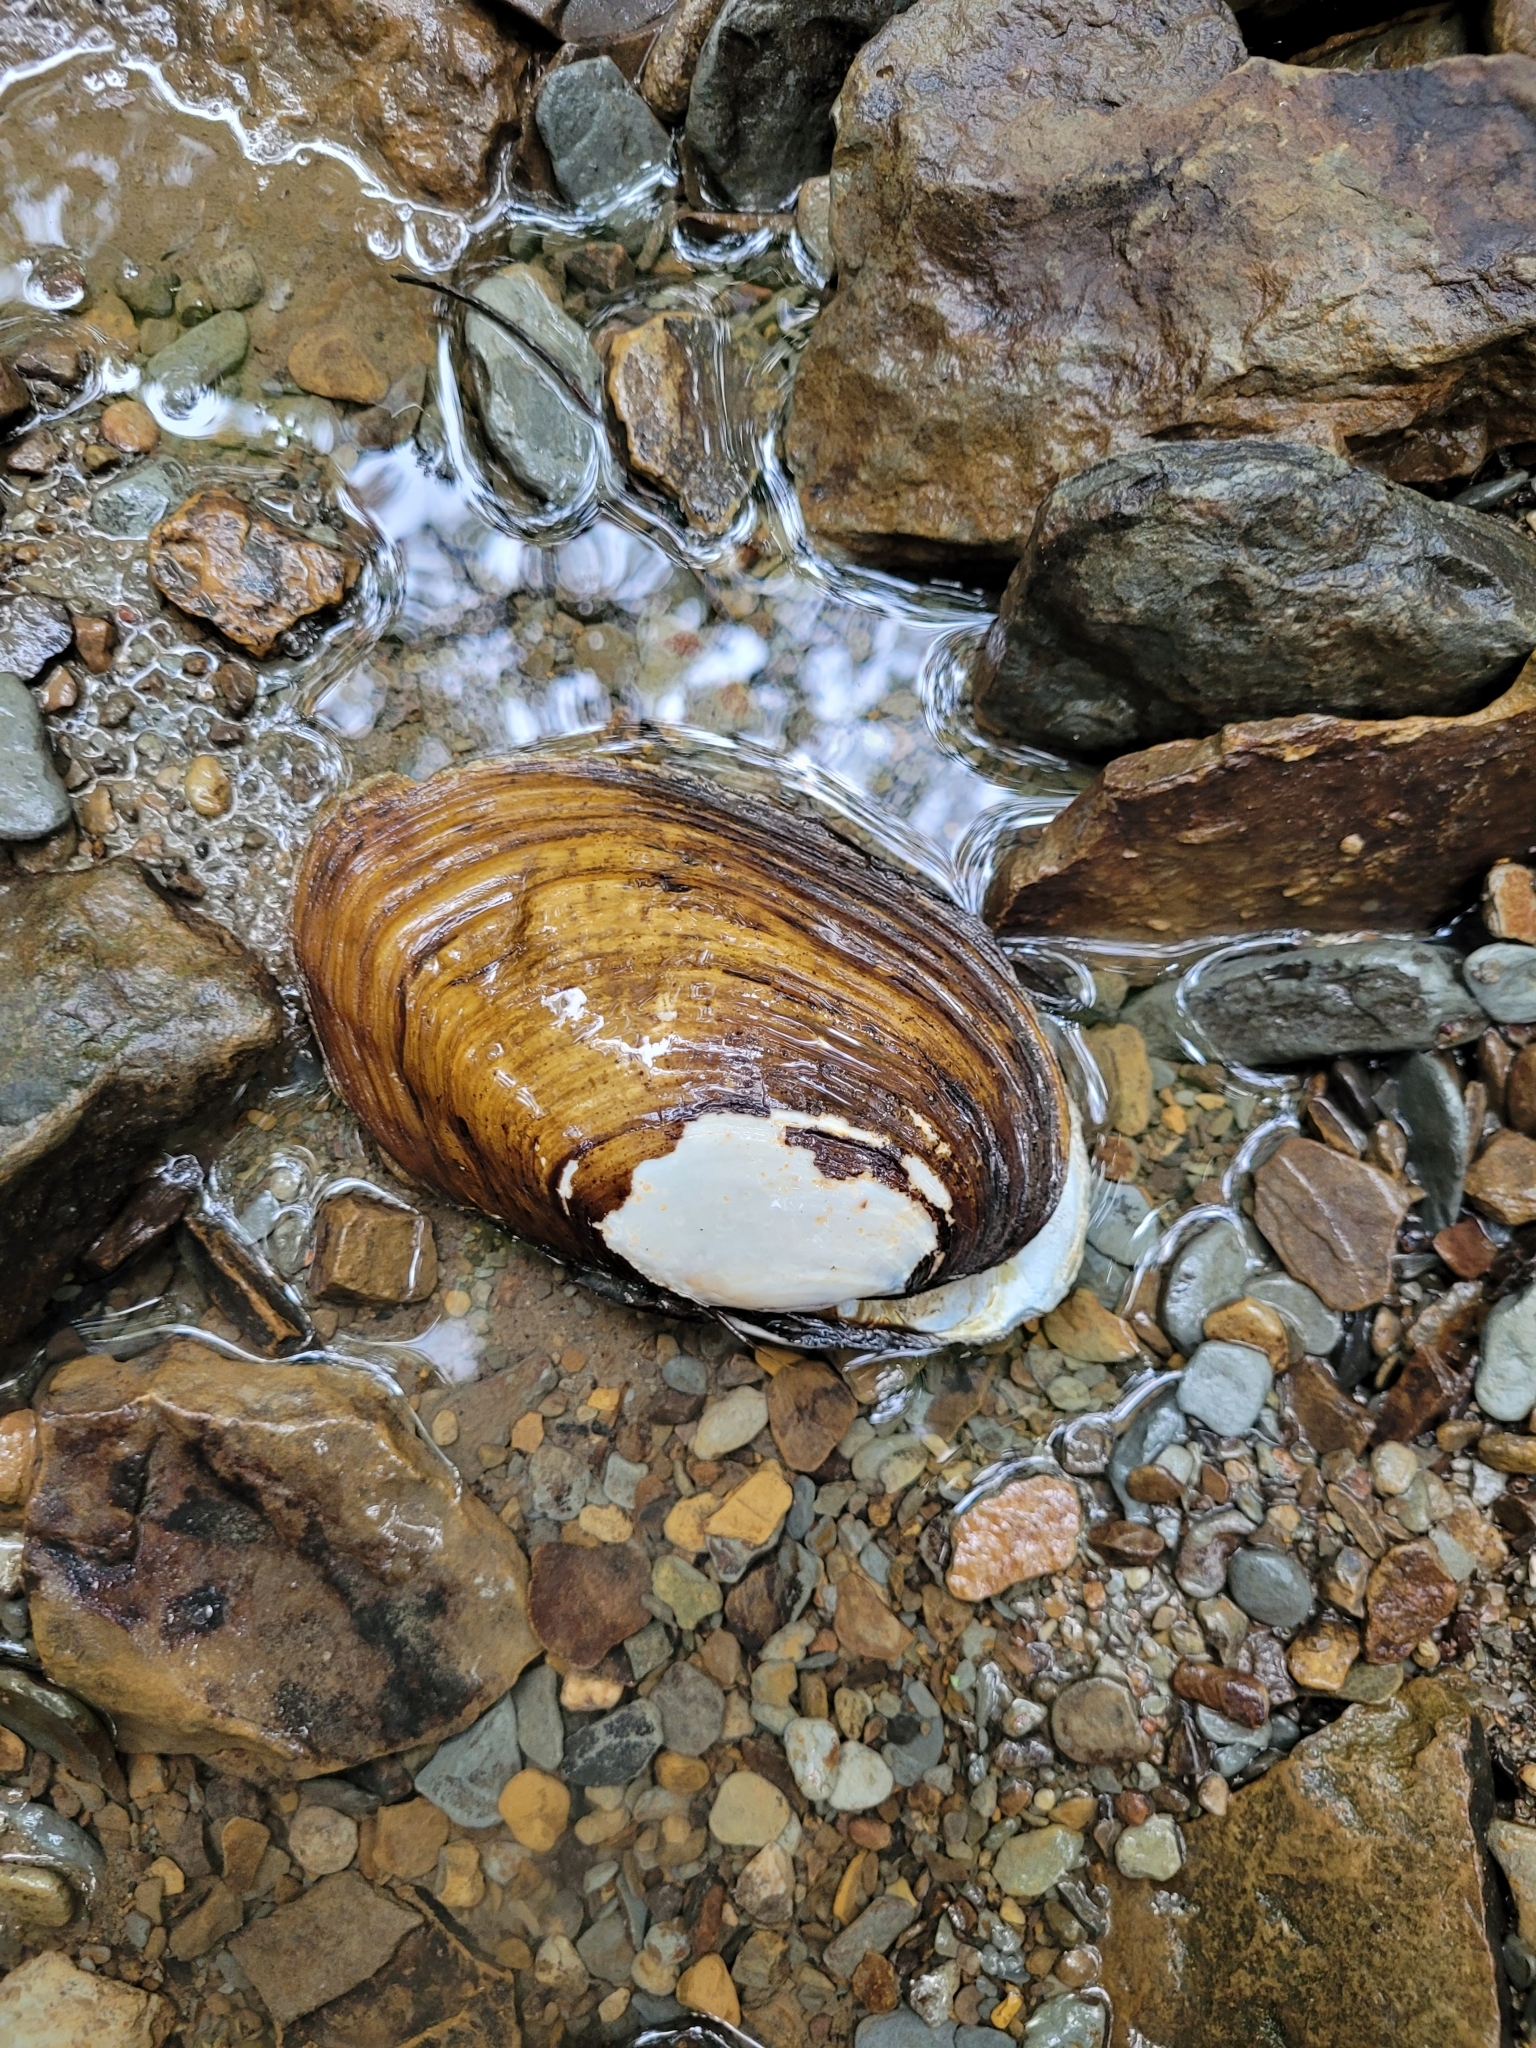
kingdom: Animalia
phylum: Mollusca
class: Bivalvia
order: Unionida
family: Unionidae
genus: Ortmanniana
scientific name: Ortmanniana ligamentina
